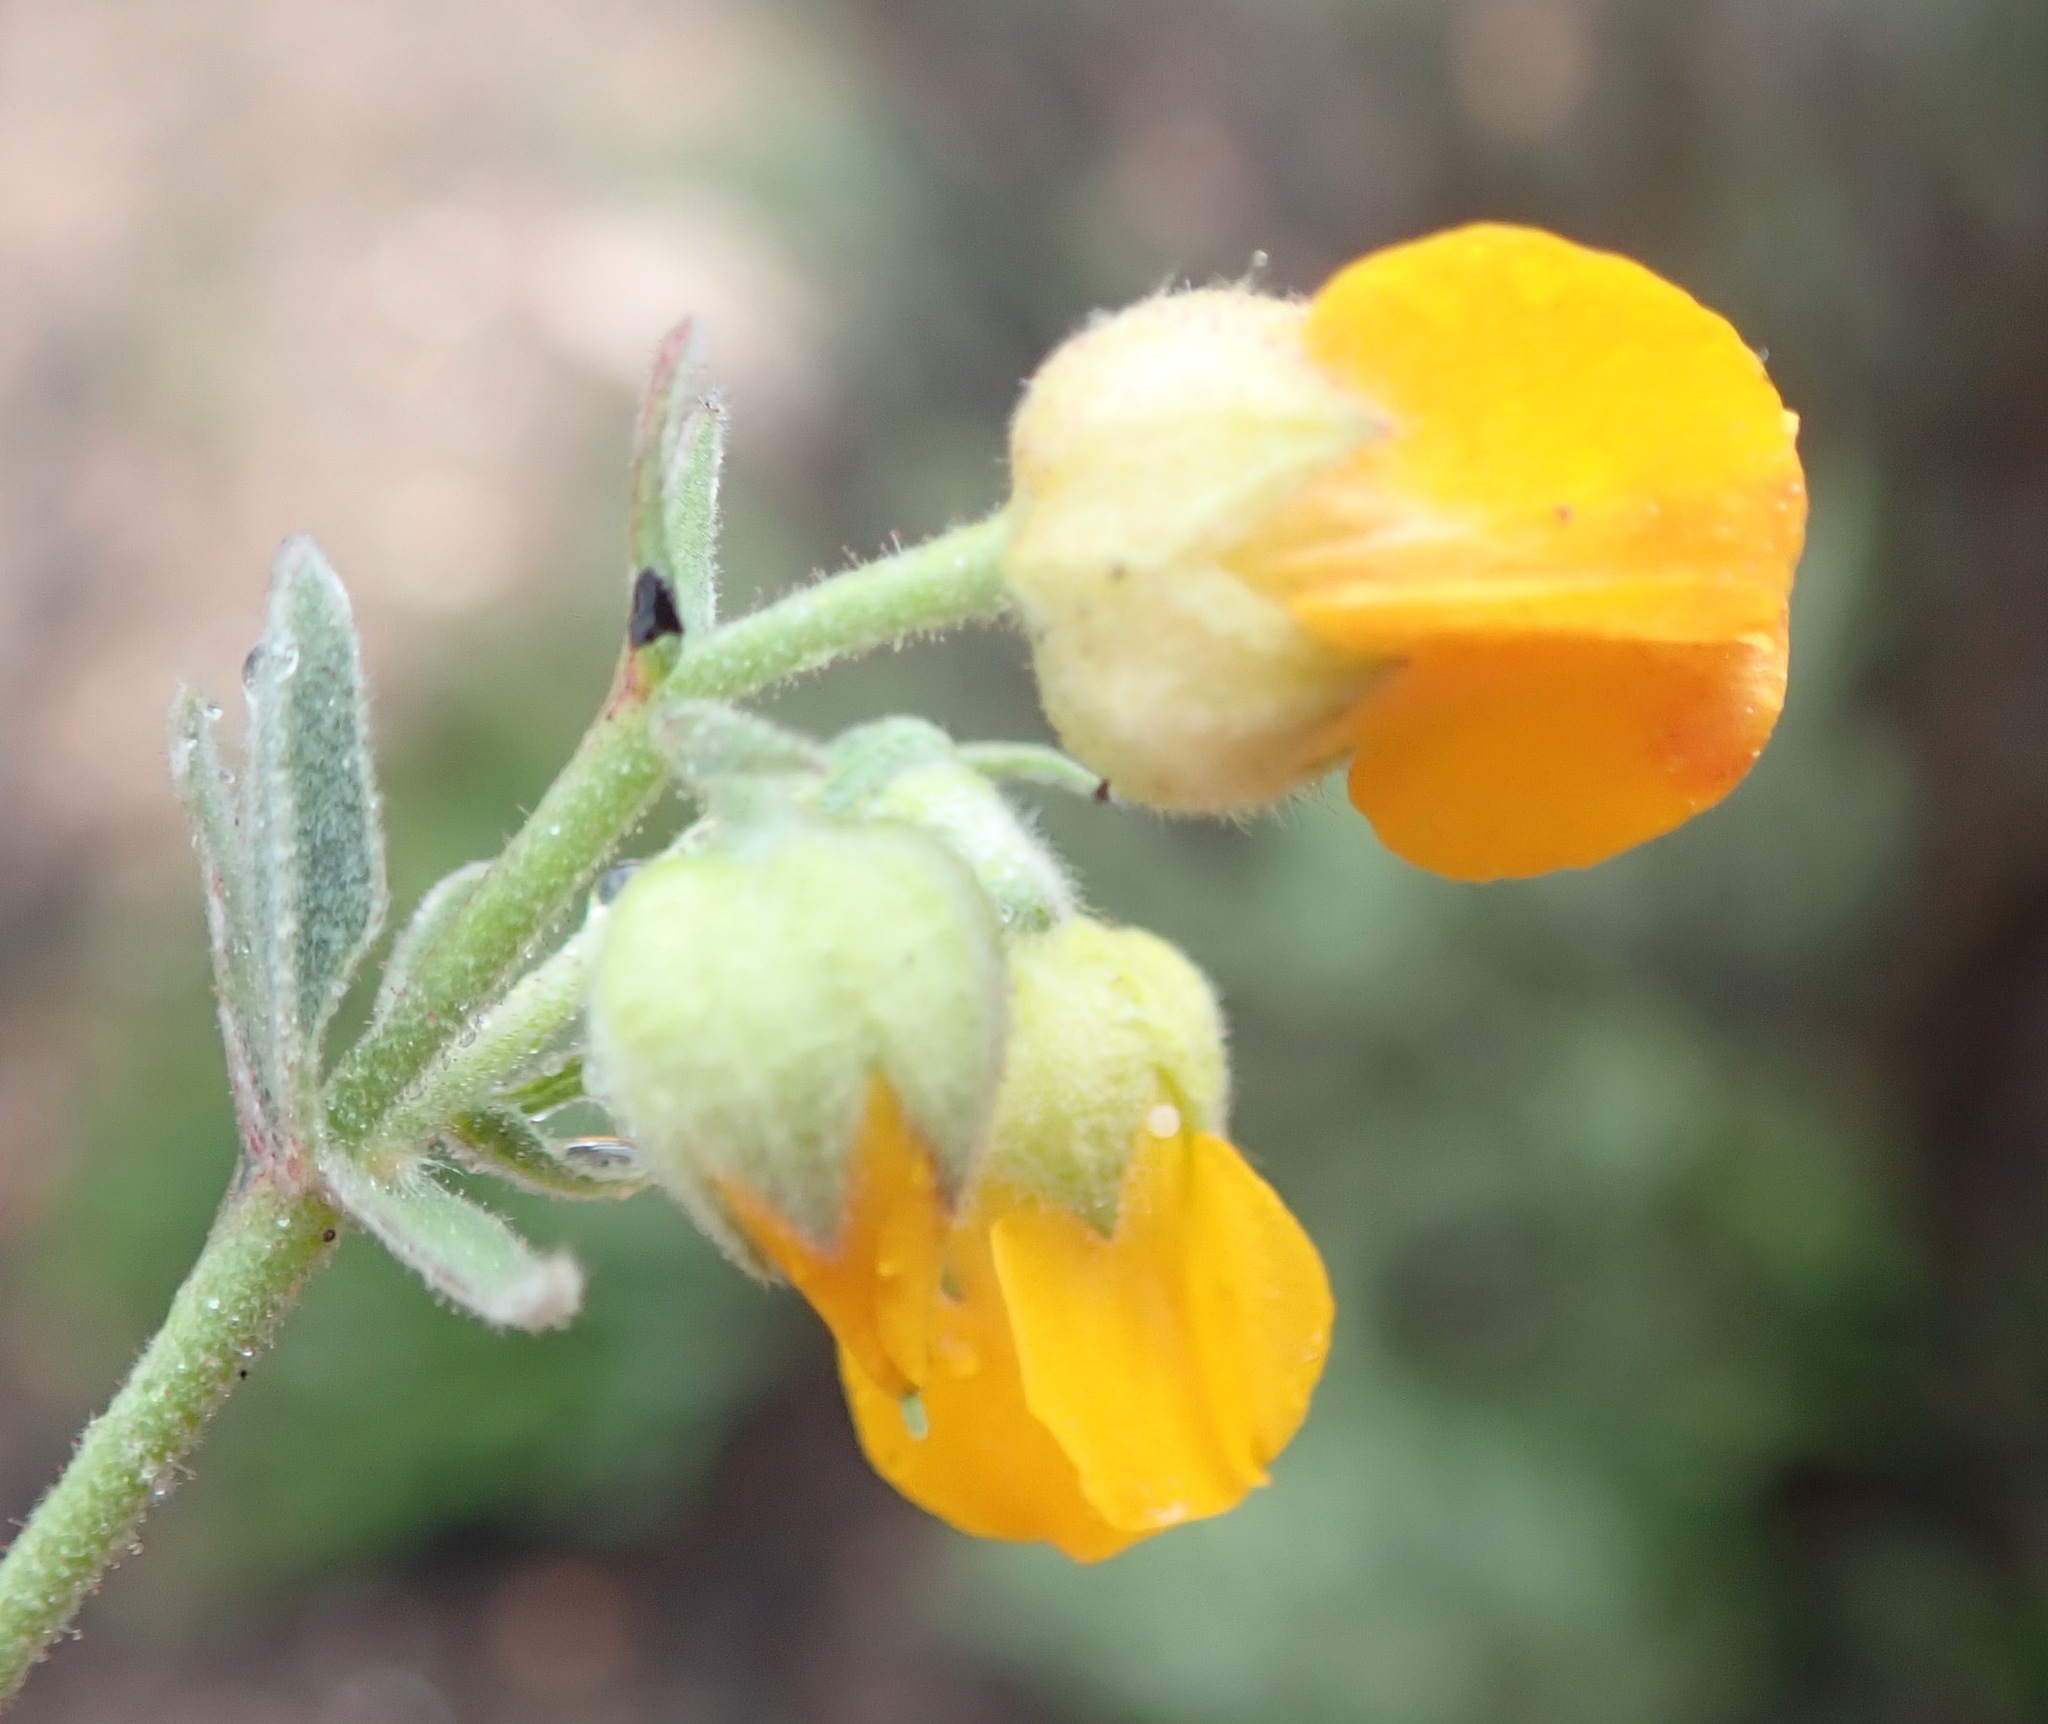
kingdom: Plantae
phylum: Tracheophyta
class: Magnoliopsida
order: Malvales
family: Malvaceae
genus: Hermannia
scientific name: Hermannia althaeifolia
